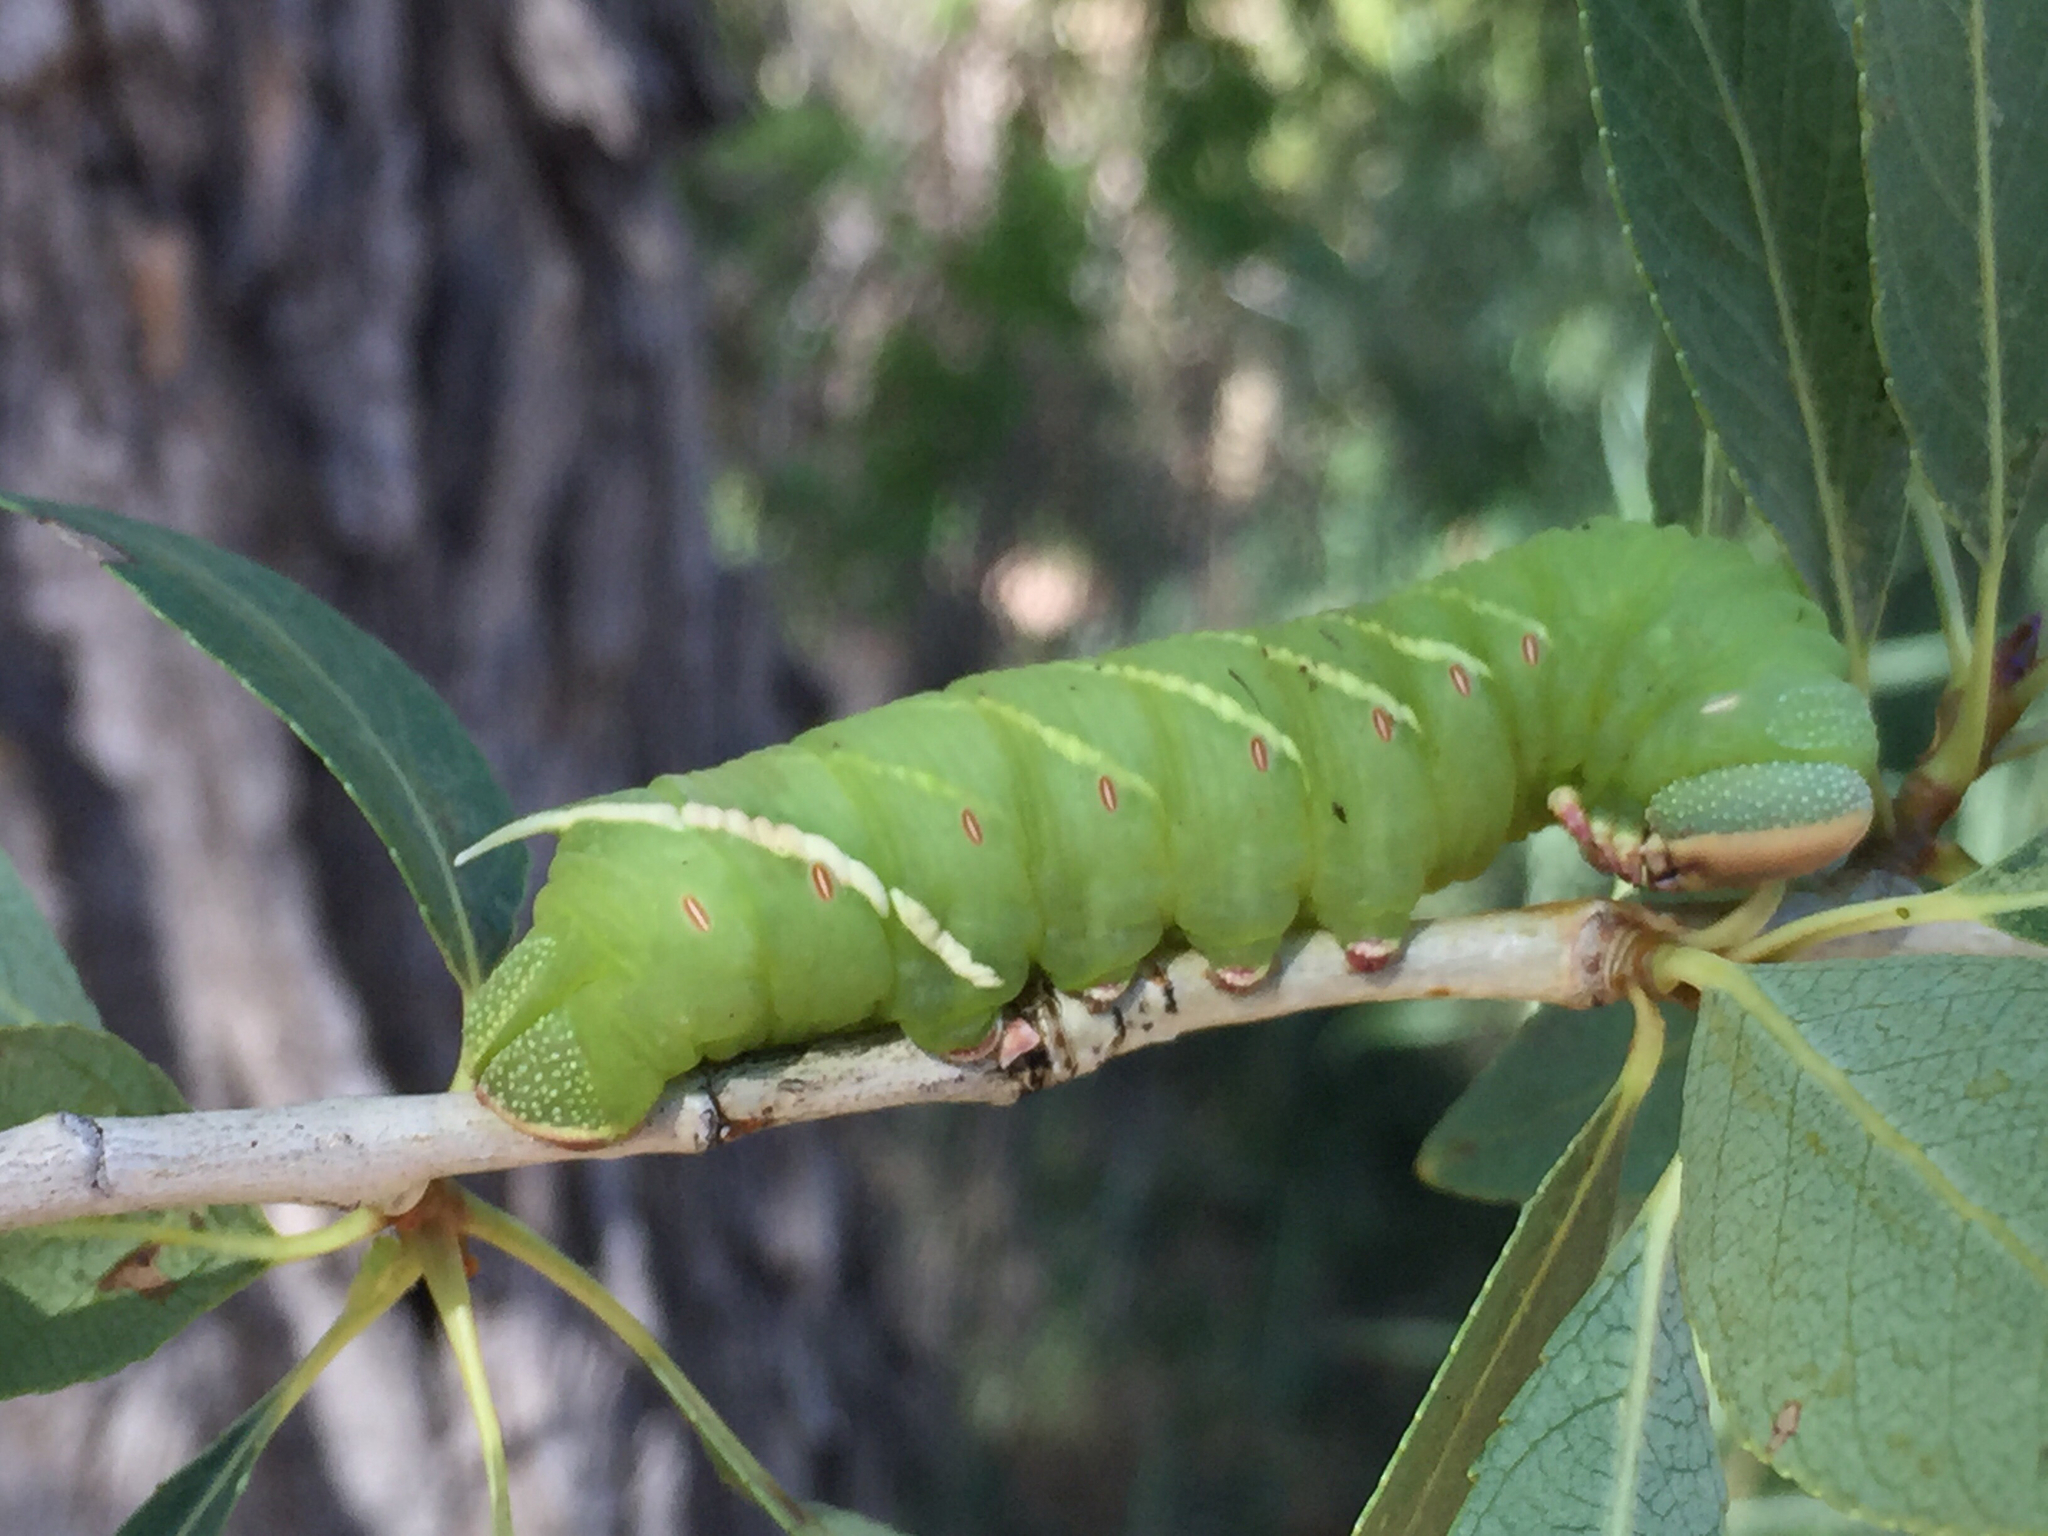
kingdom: Animalia
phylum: Arthropoda
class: Insecta
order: Lepidoptera
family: Sphingidae
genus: Pachysphinx
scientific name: Pachysphinx occidentalis
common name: Western poplar sphinx
